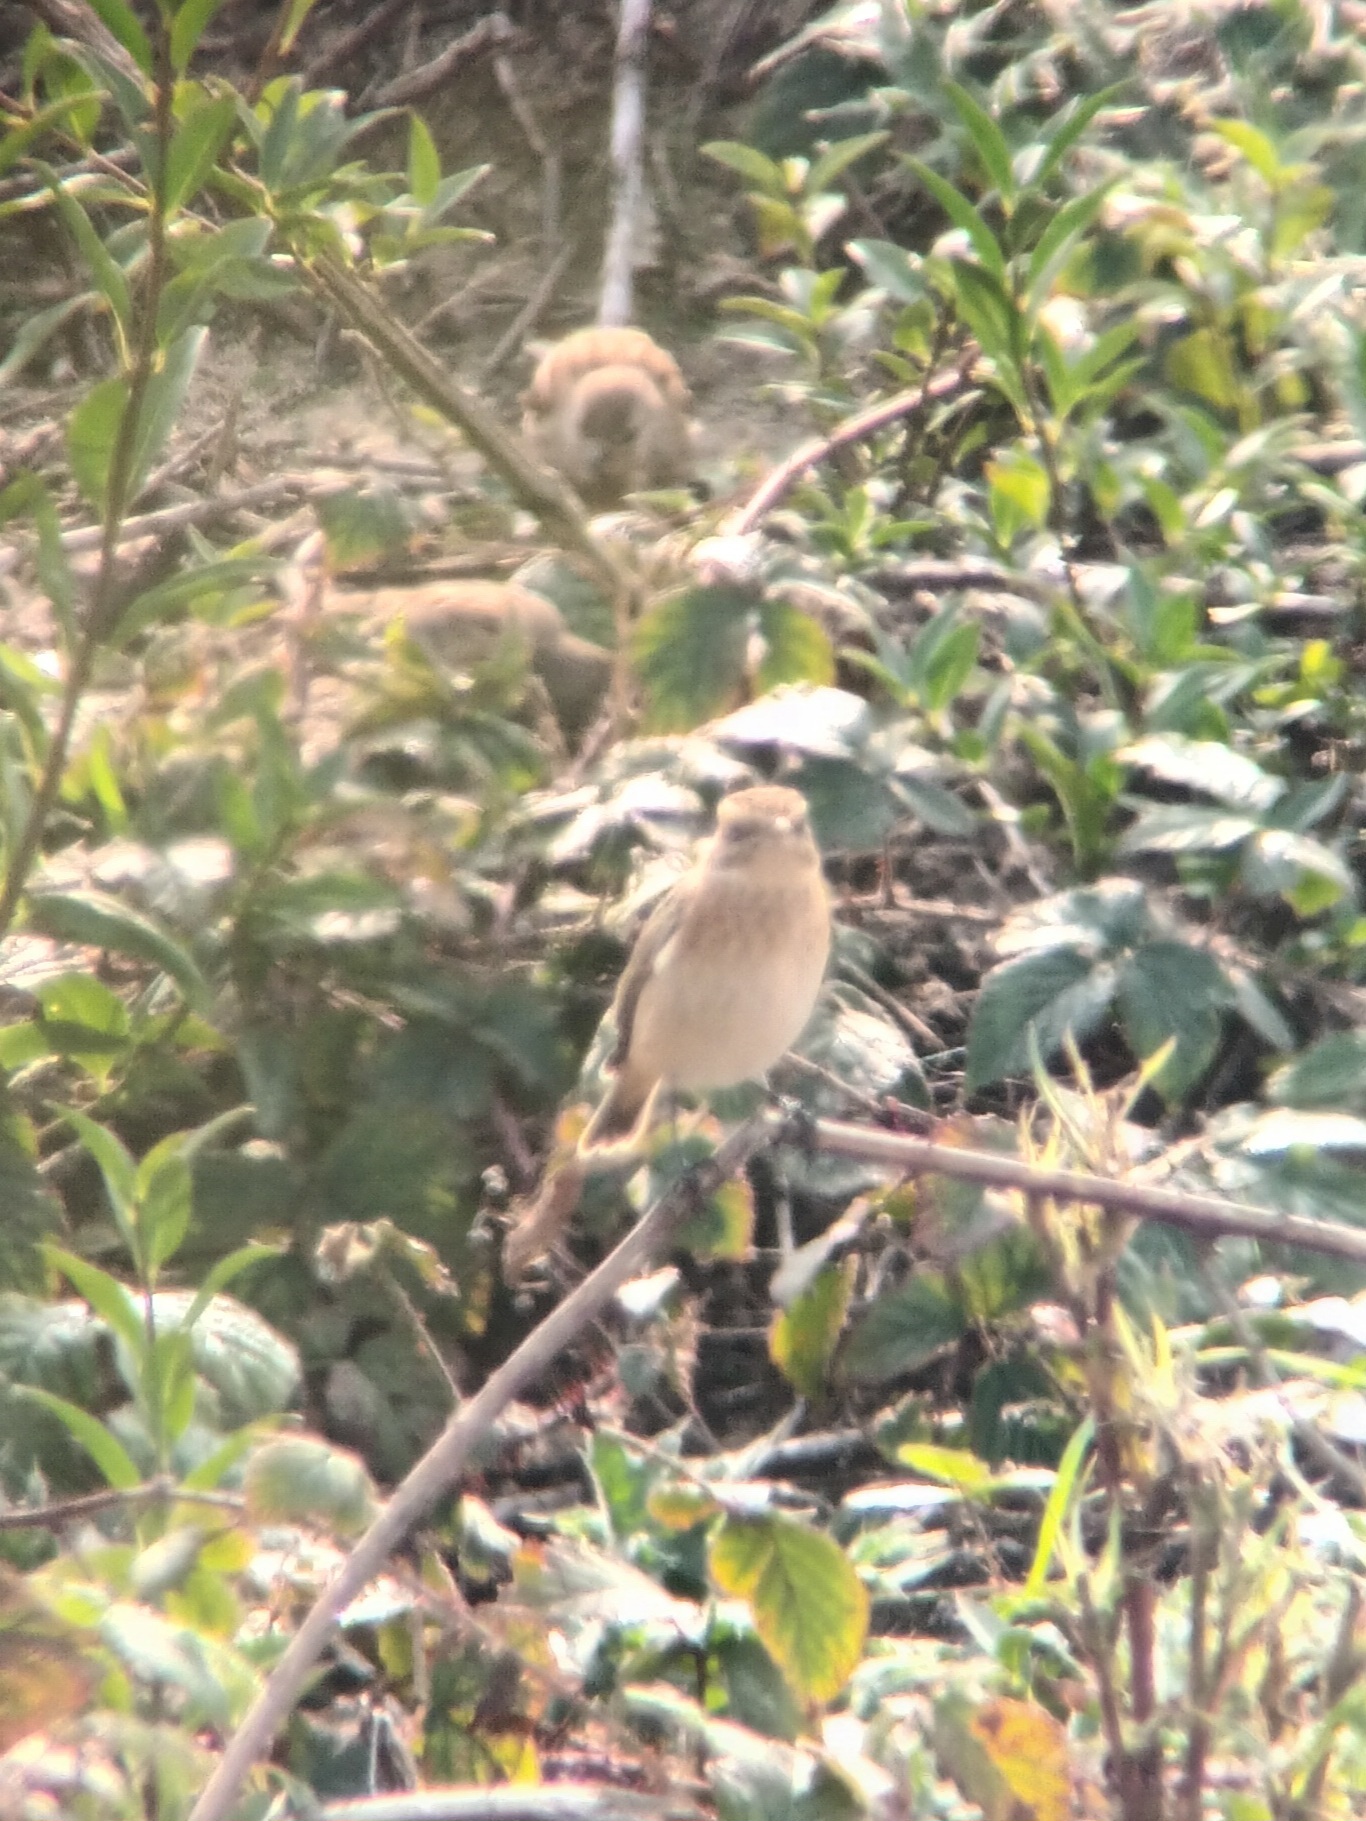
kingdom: Animalia
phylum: Chordata
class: Aves
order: Passeriformes
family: Muscicapidae
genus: Saxicola
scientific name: Saxicola rubetra
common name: Whinchat
